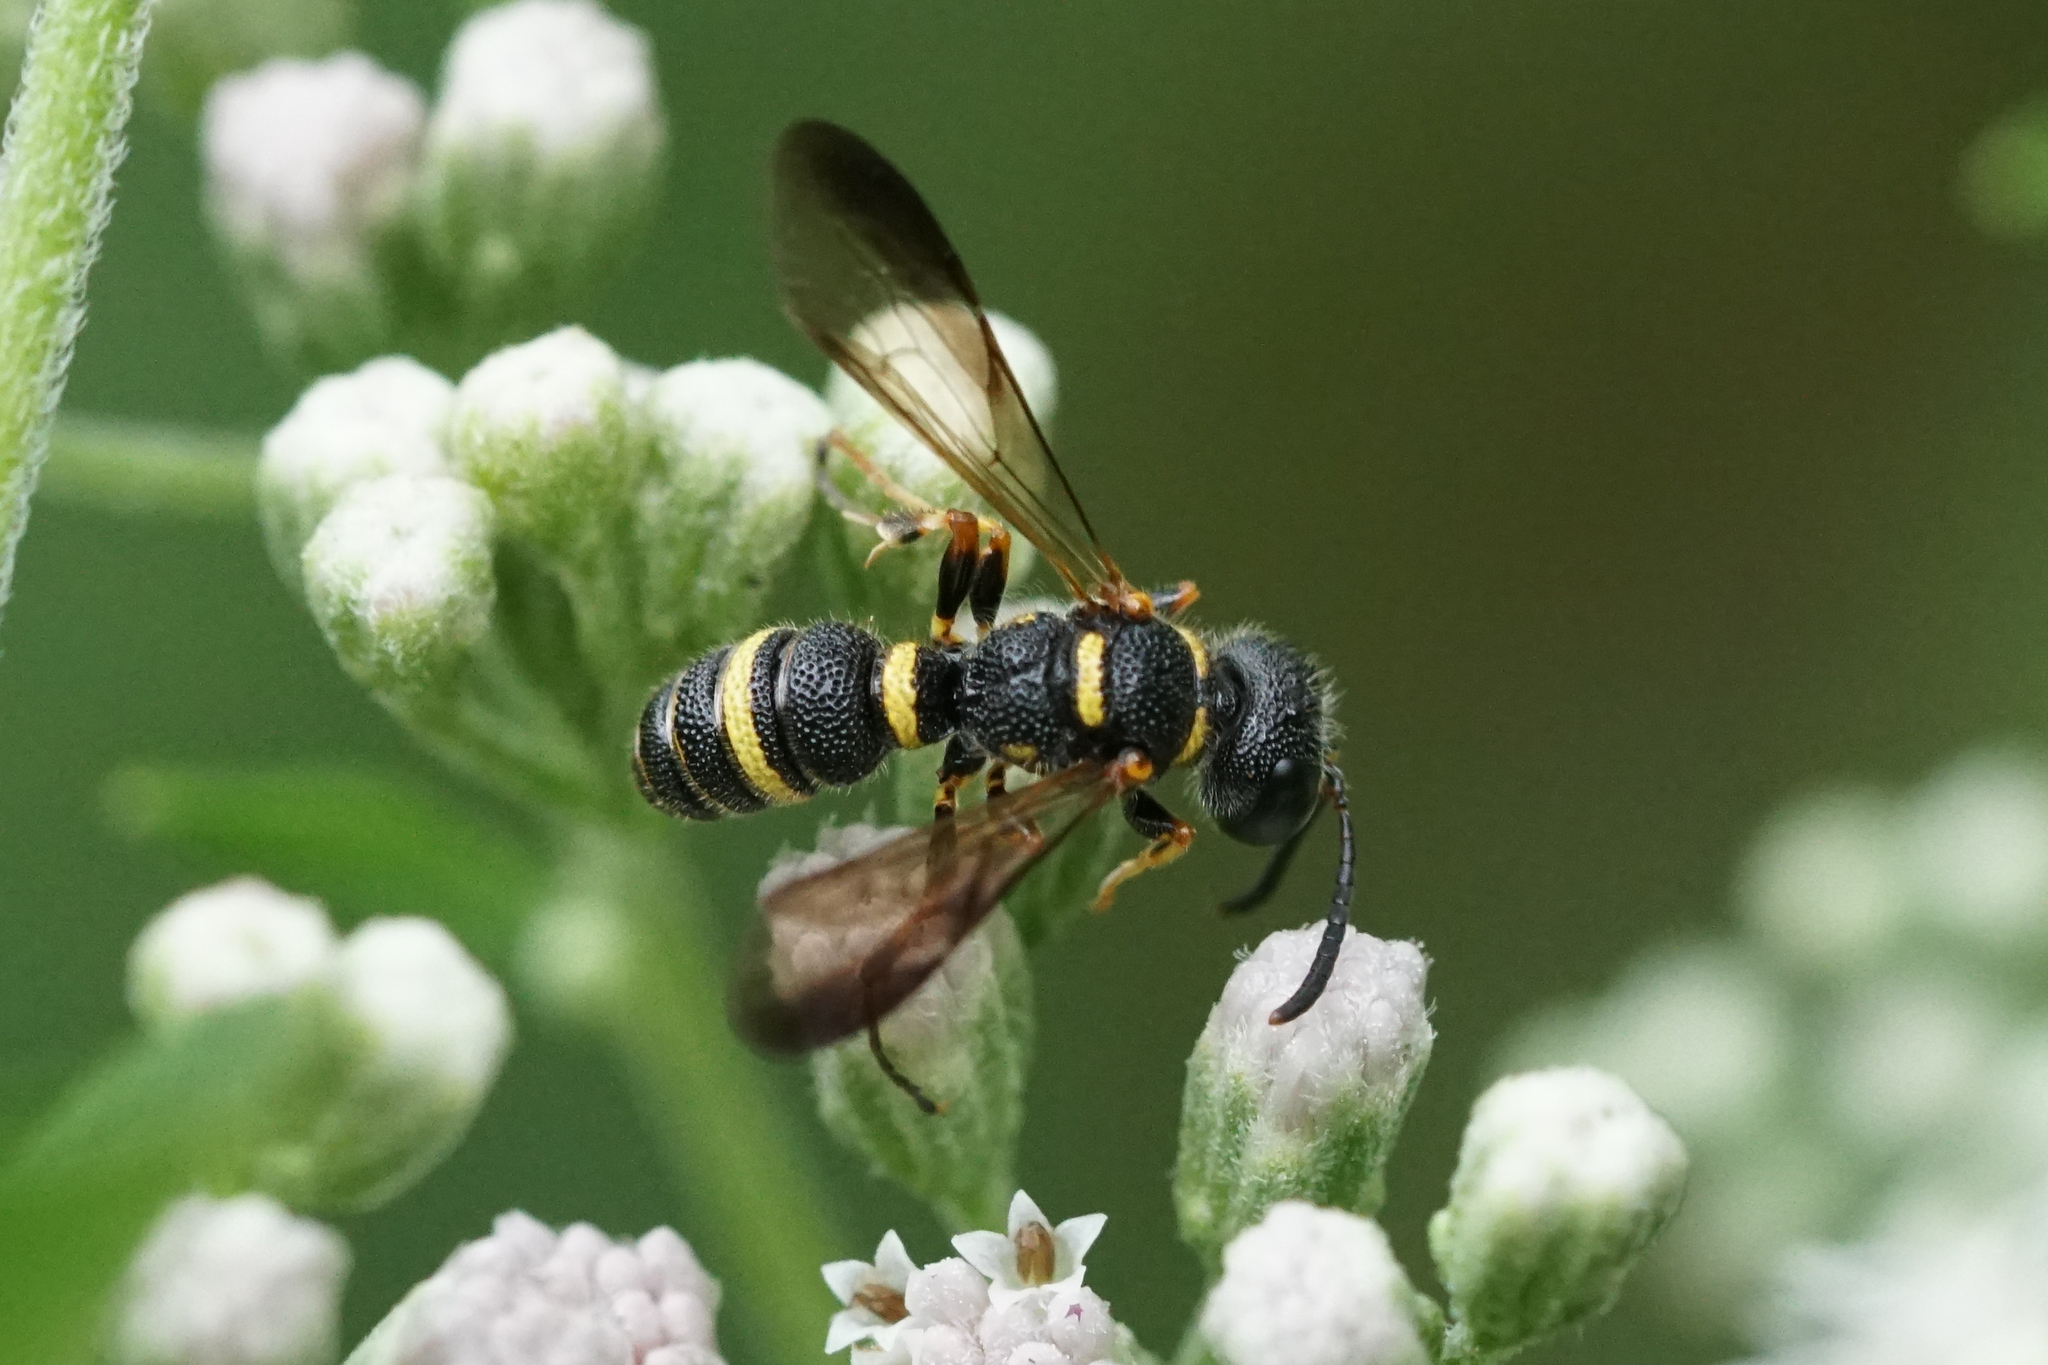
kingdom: Animalia
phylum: Arthropoda
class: Insecta
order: Hymenoptera
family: Crabronidae
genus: Cerceris
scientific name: Cerceris insolita
